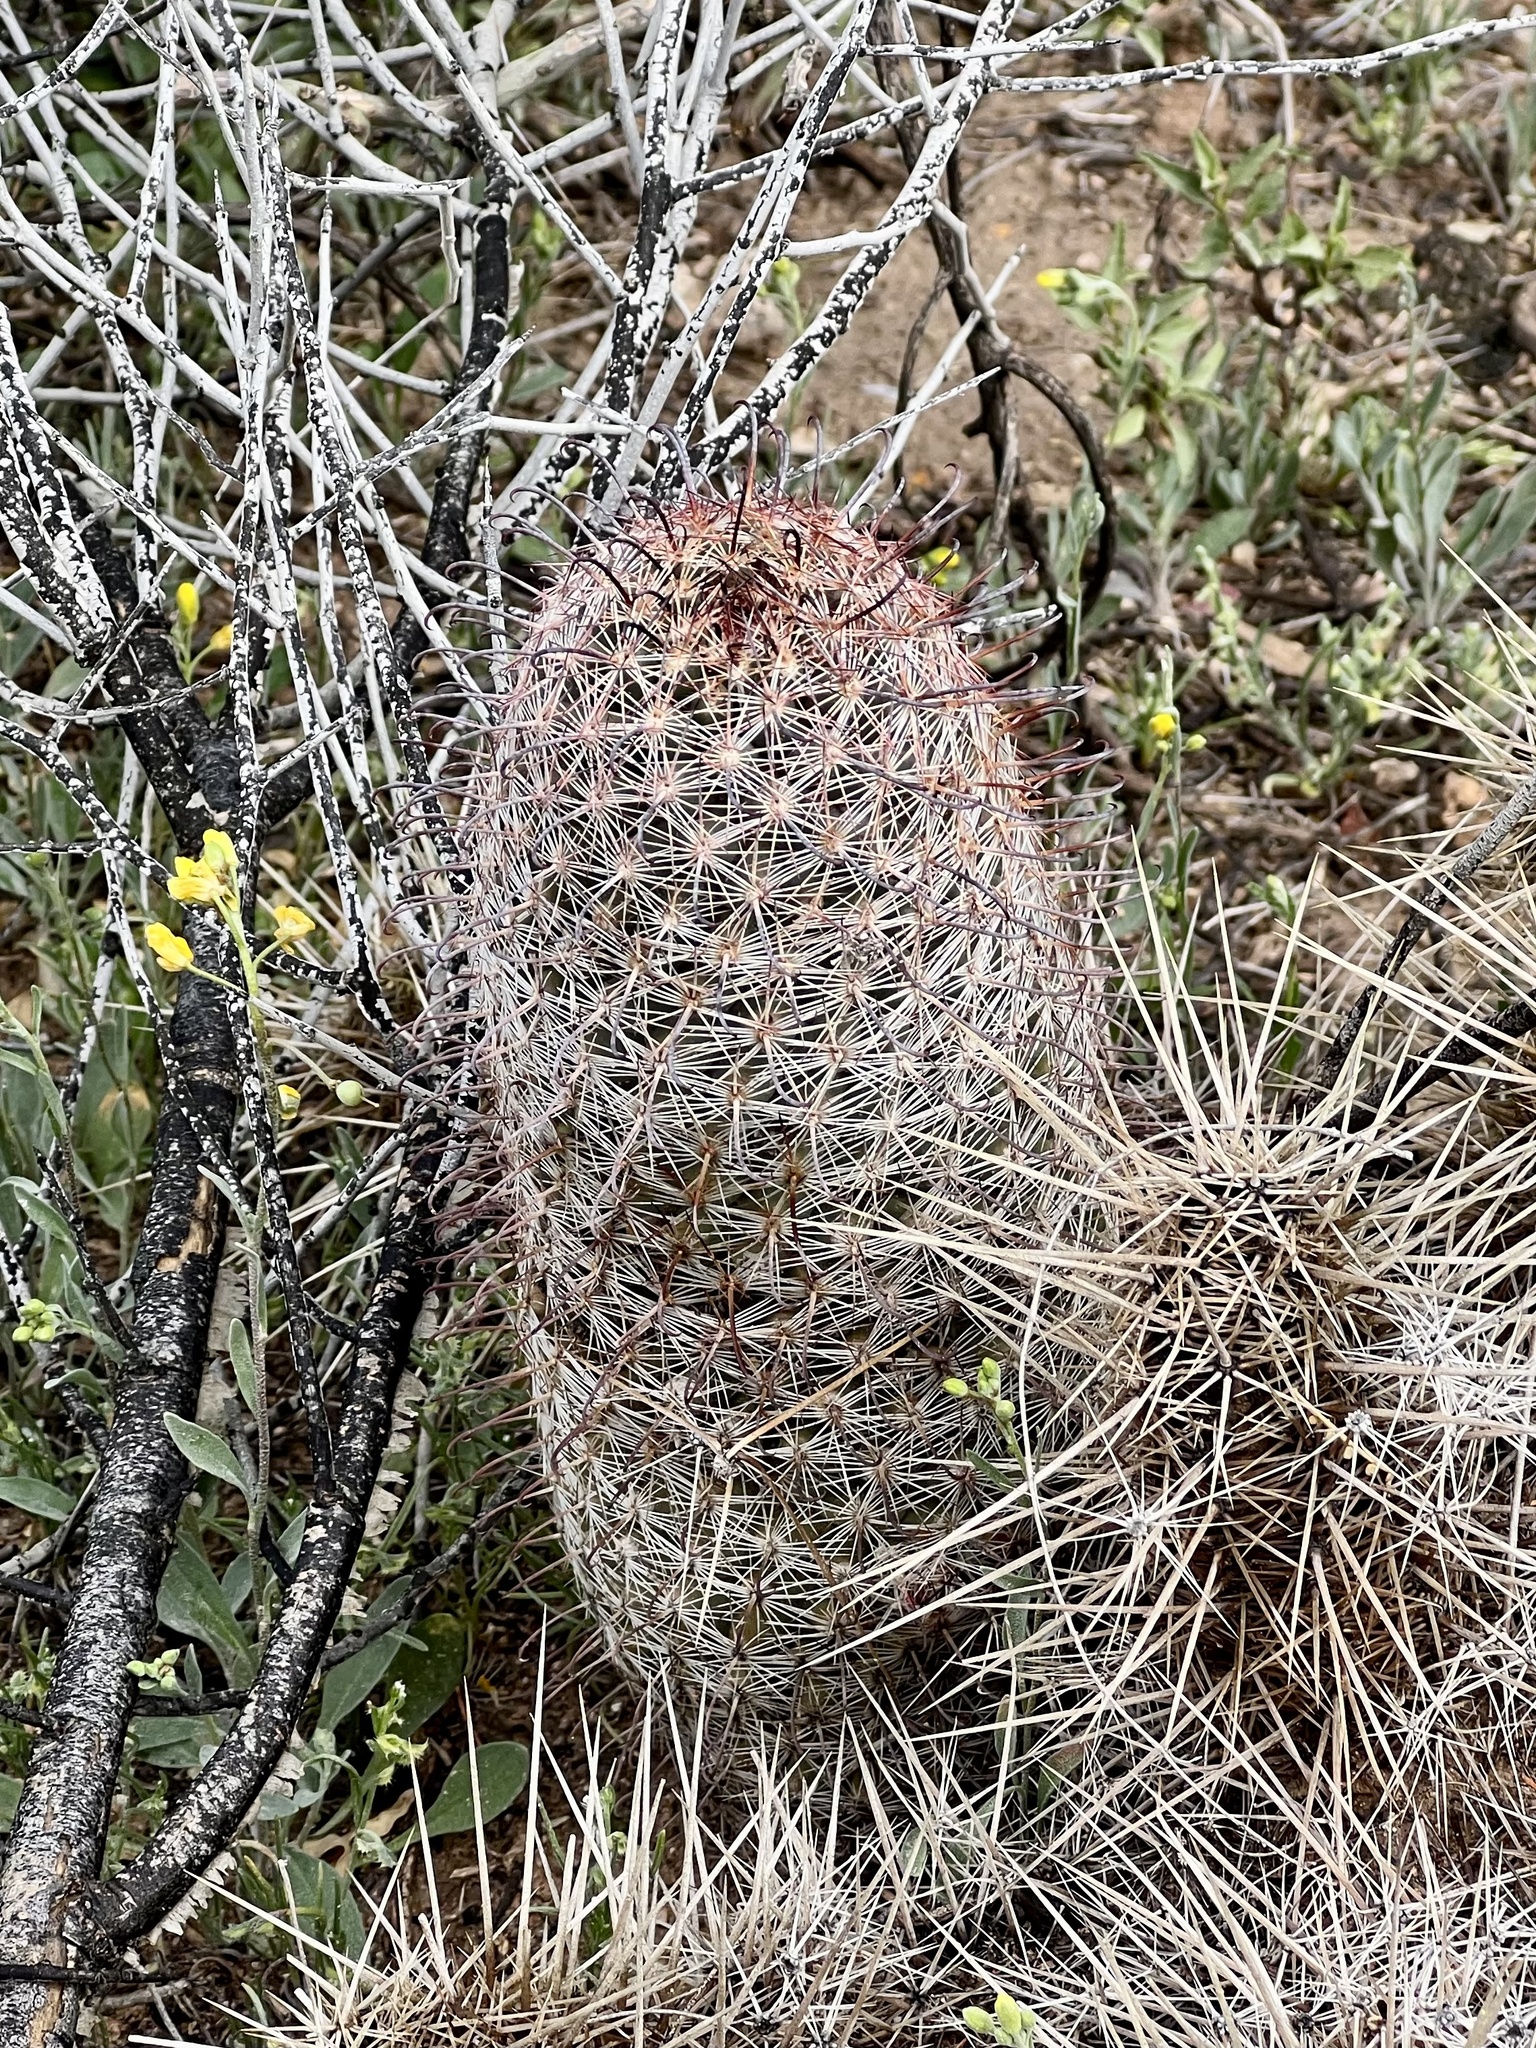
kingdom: Plantae
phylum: Tracheophyta
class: Magnoliopsida
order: Caryophyllales
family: Cactaceae
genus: Cochemiea
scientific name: Cochemiea grahamii
